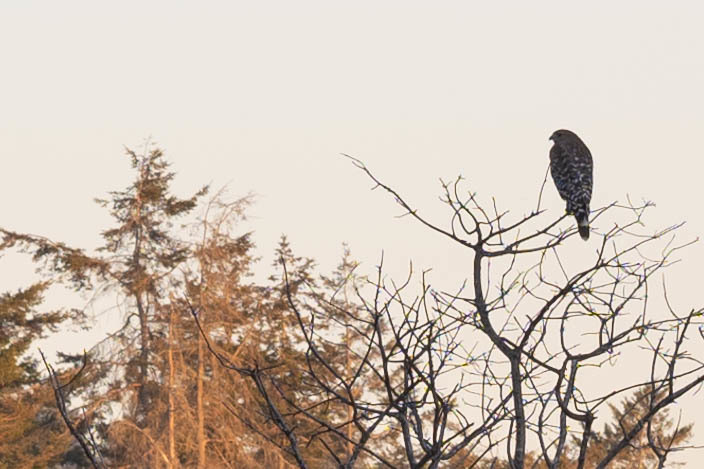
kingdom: Animalia
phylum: Chordata
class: Aves
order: Accipitriformes
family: Accipitridae
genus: Buteo
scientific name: Buteo lineatus
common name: Red-shouldered hawk
